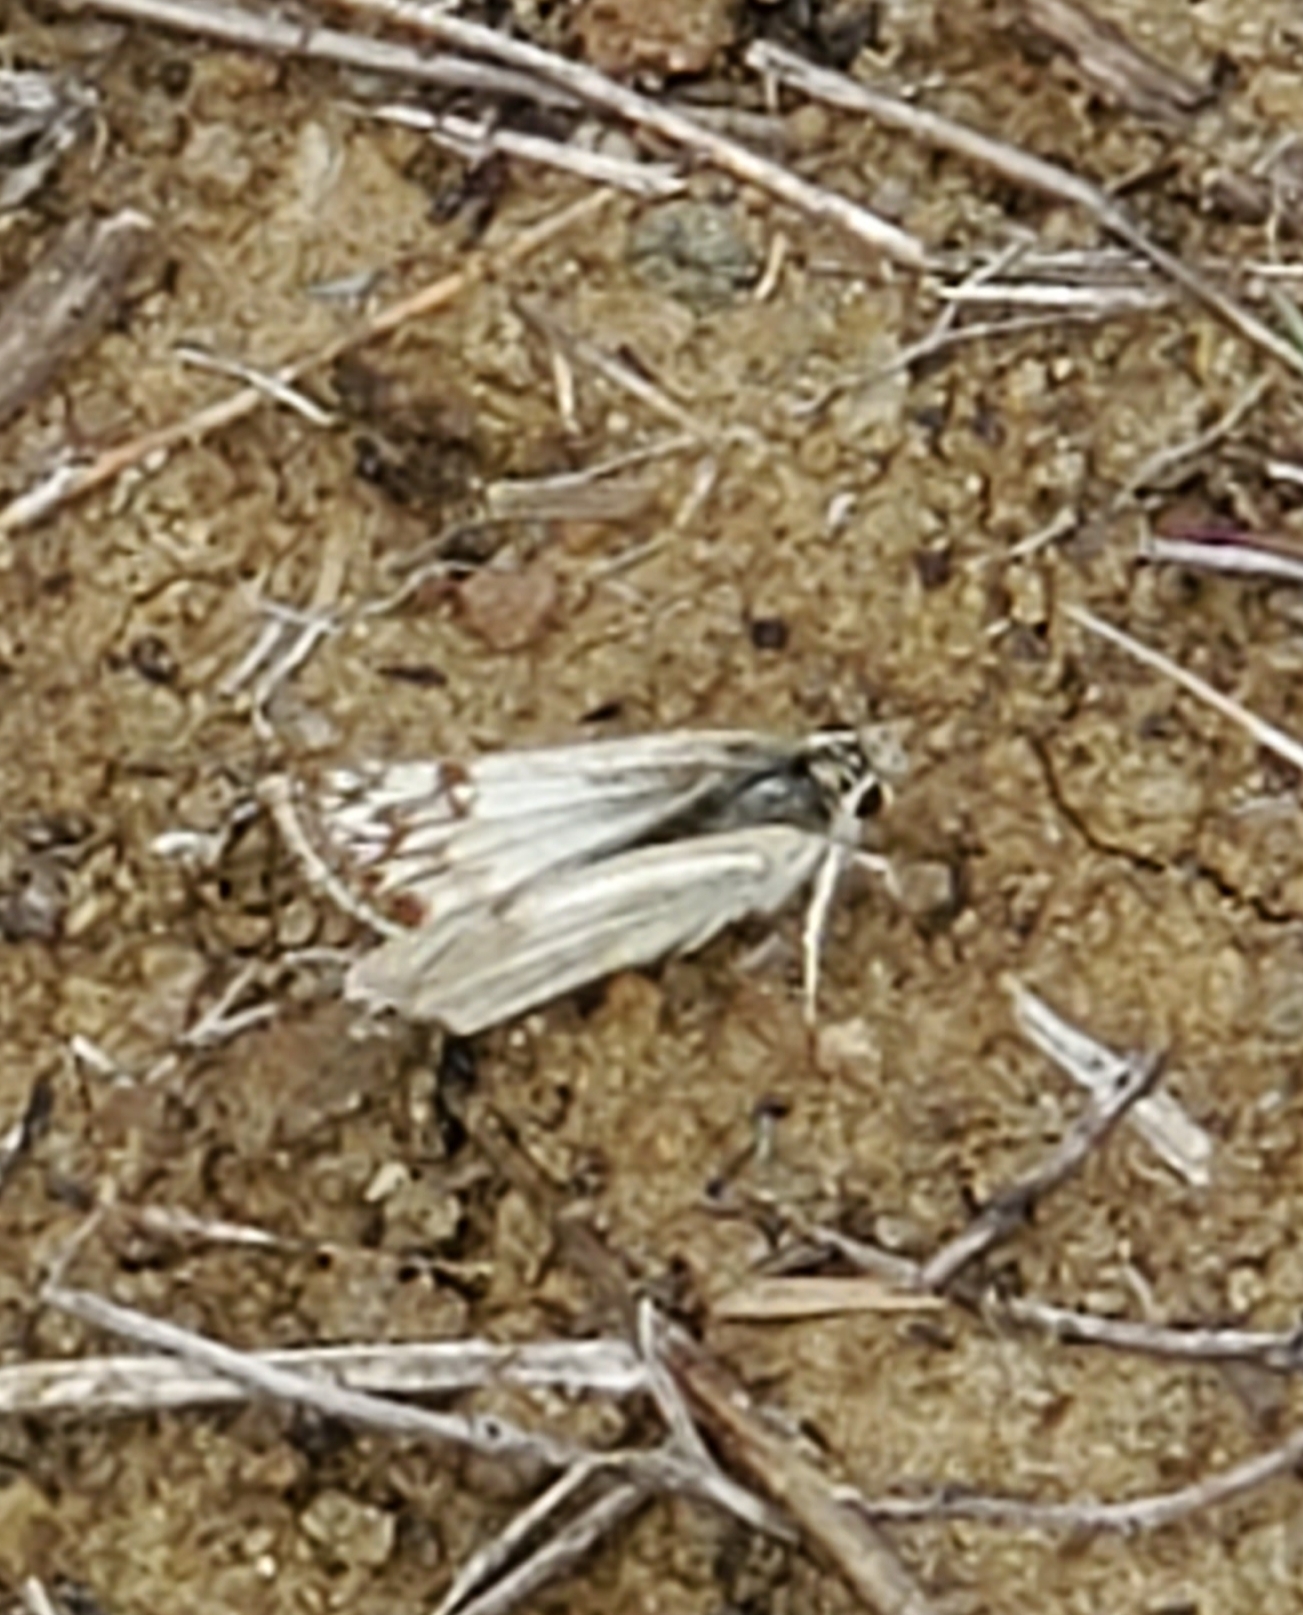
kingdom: Animalia
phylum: Arthropoda
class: Insecta
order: Lepidoptera
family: Hesperiidae
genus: Heliopetes
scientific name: Heliopetes ericetorum
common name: Northern white-skipper
